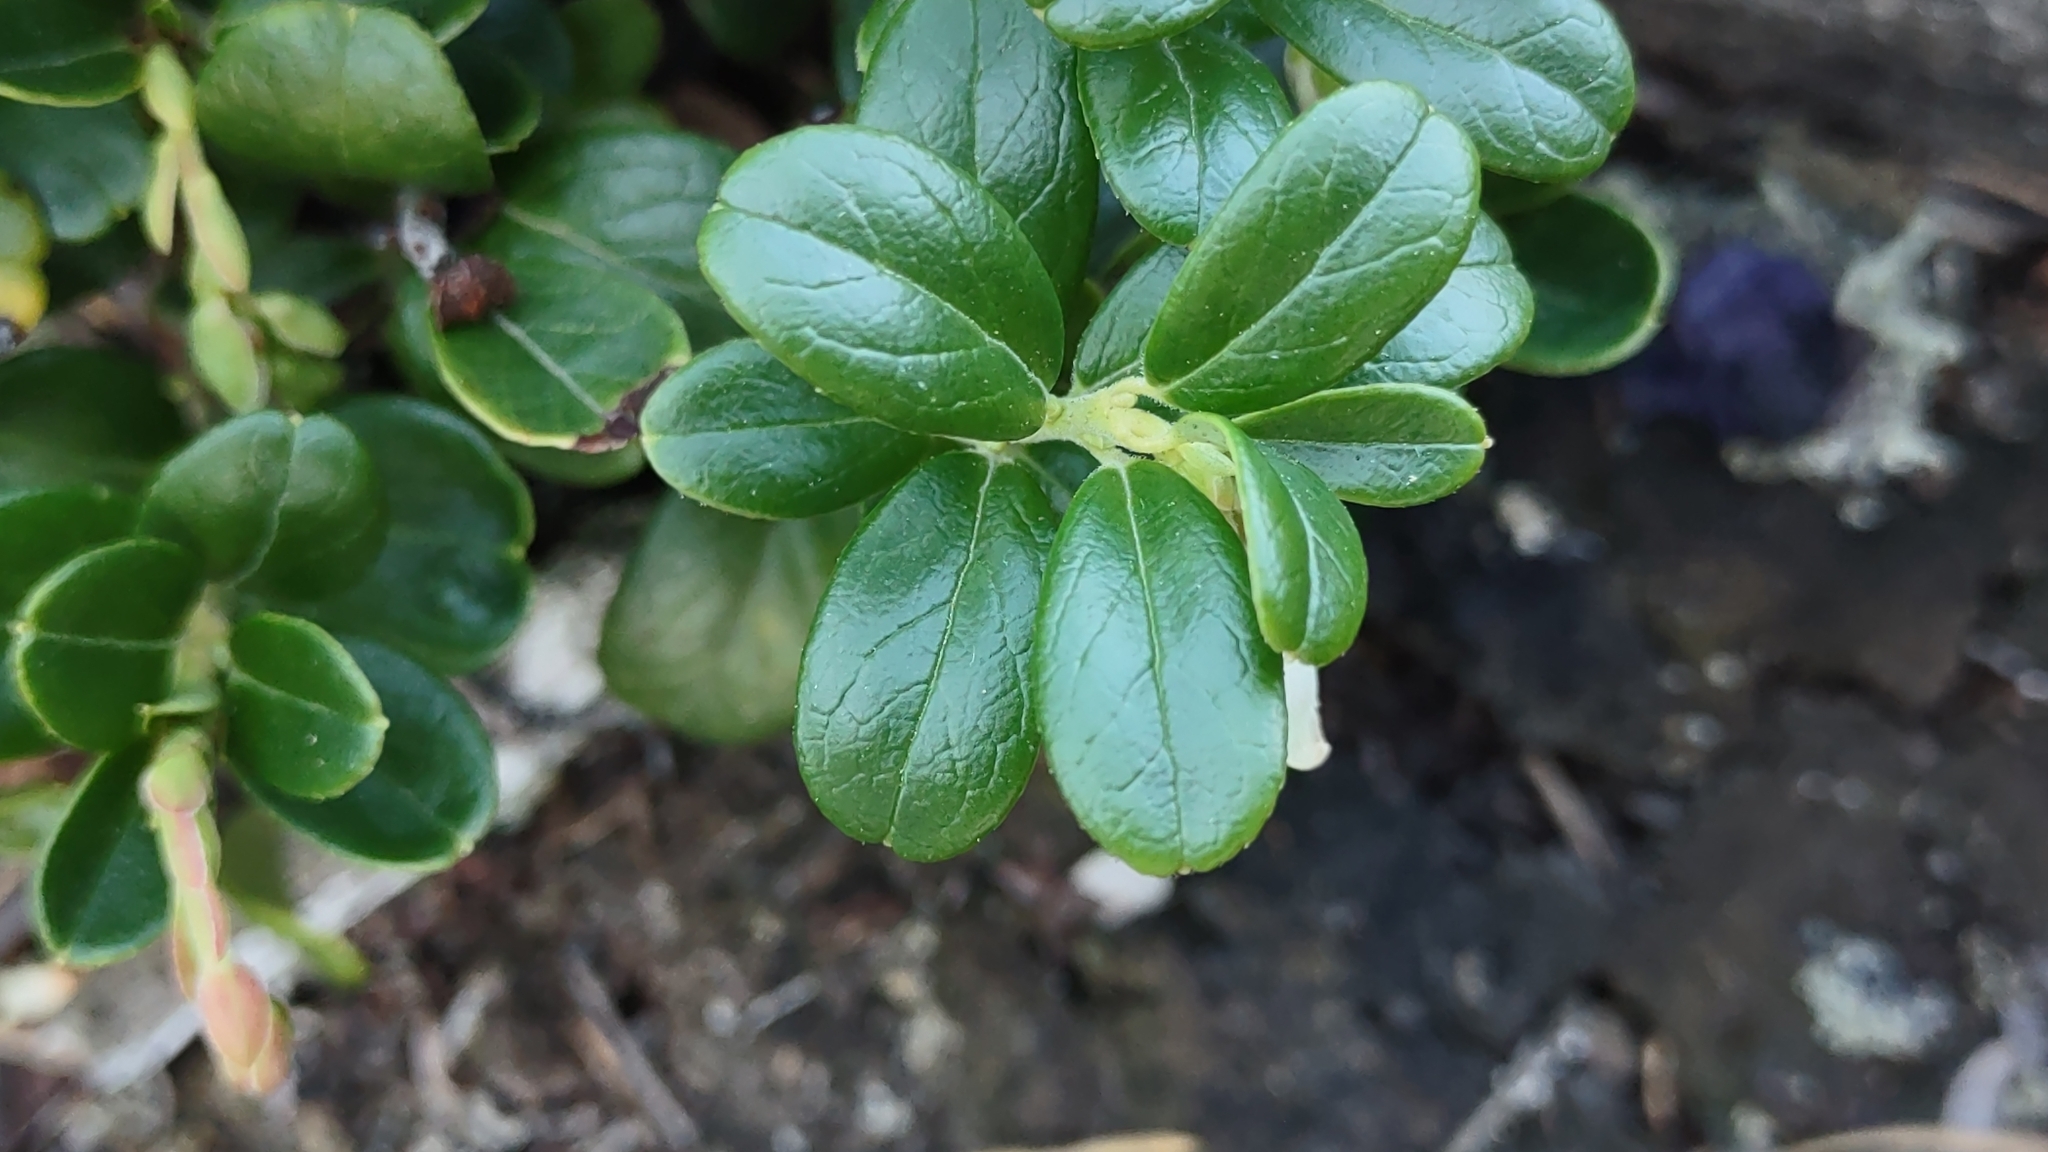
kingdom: Plantae
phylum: Tracheophyta
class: Magnoliopsida
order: Ericales
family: Ericaceae
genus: Vaccinium
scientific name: Vaccinium vitis-idaea
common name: Cowberry
